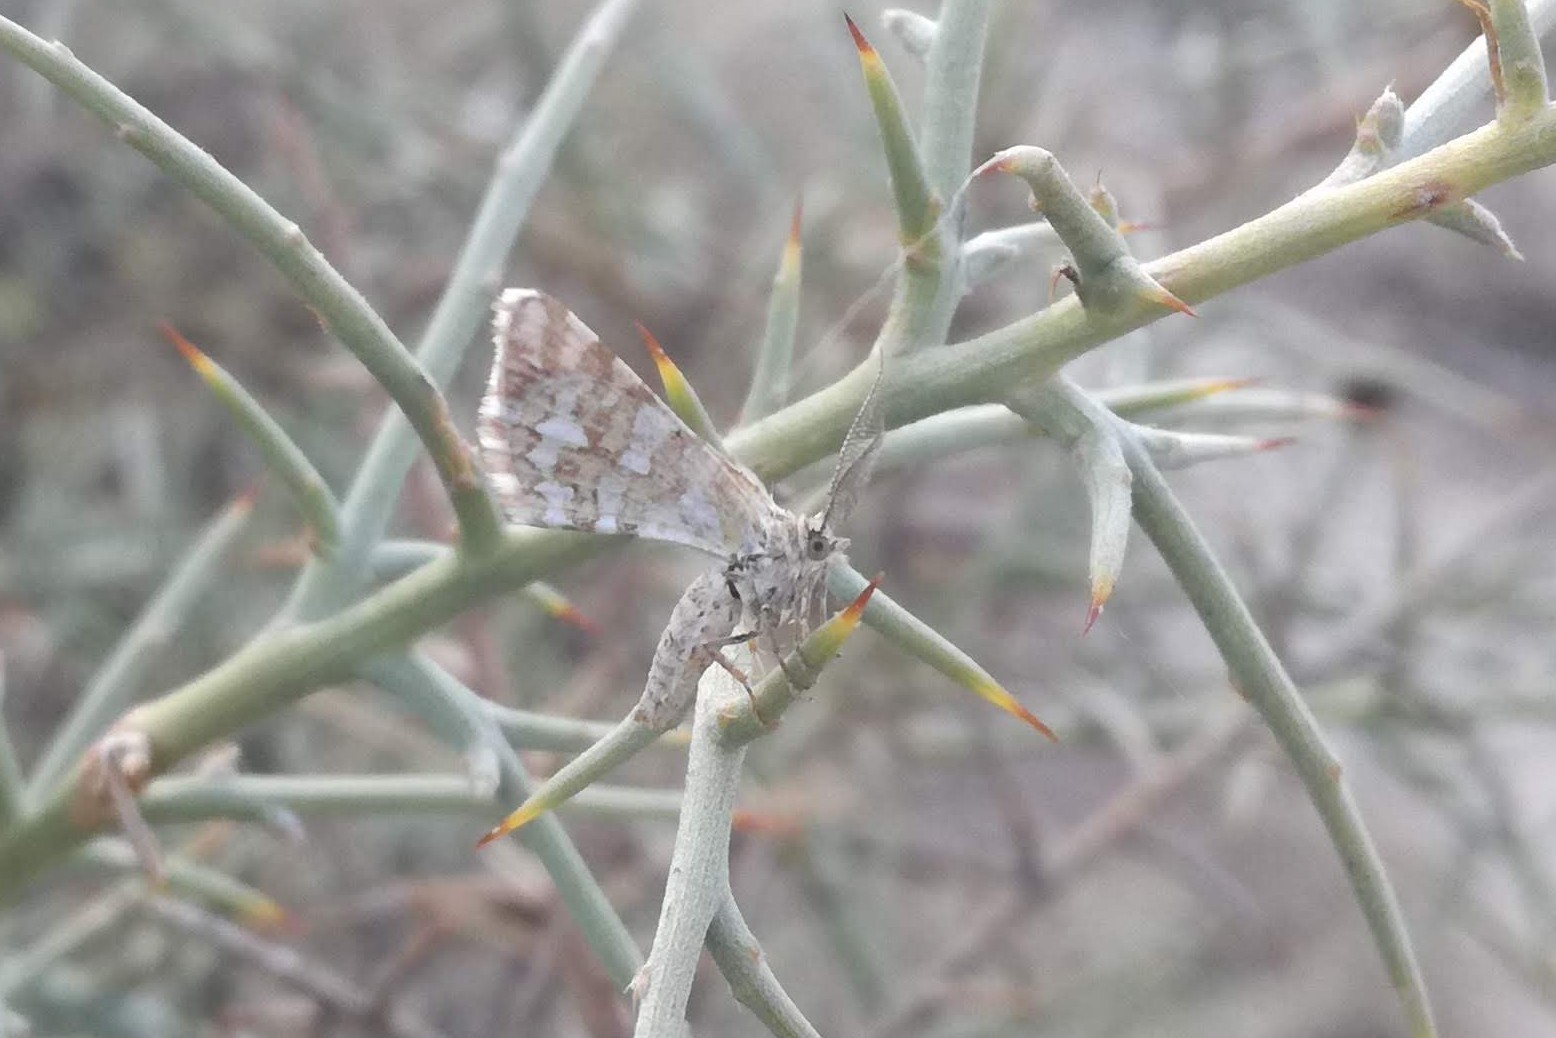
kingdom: Animalia
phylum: Arthropoda
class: Insecta
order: Lepidoptera
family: Geometridae
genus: Narraga
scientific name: Narraga nelvae
